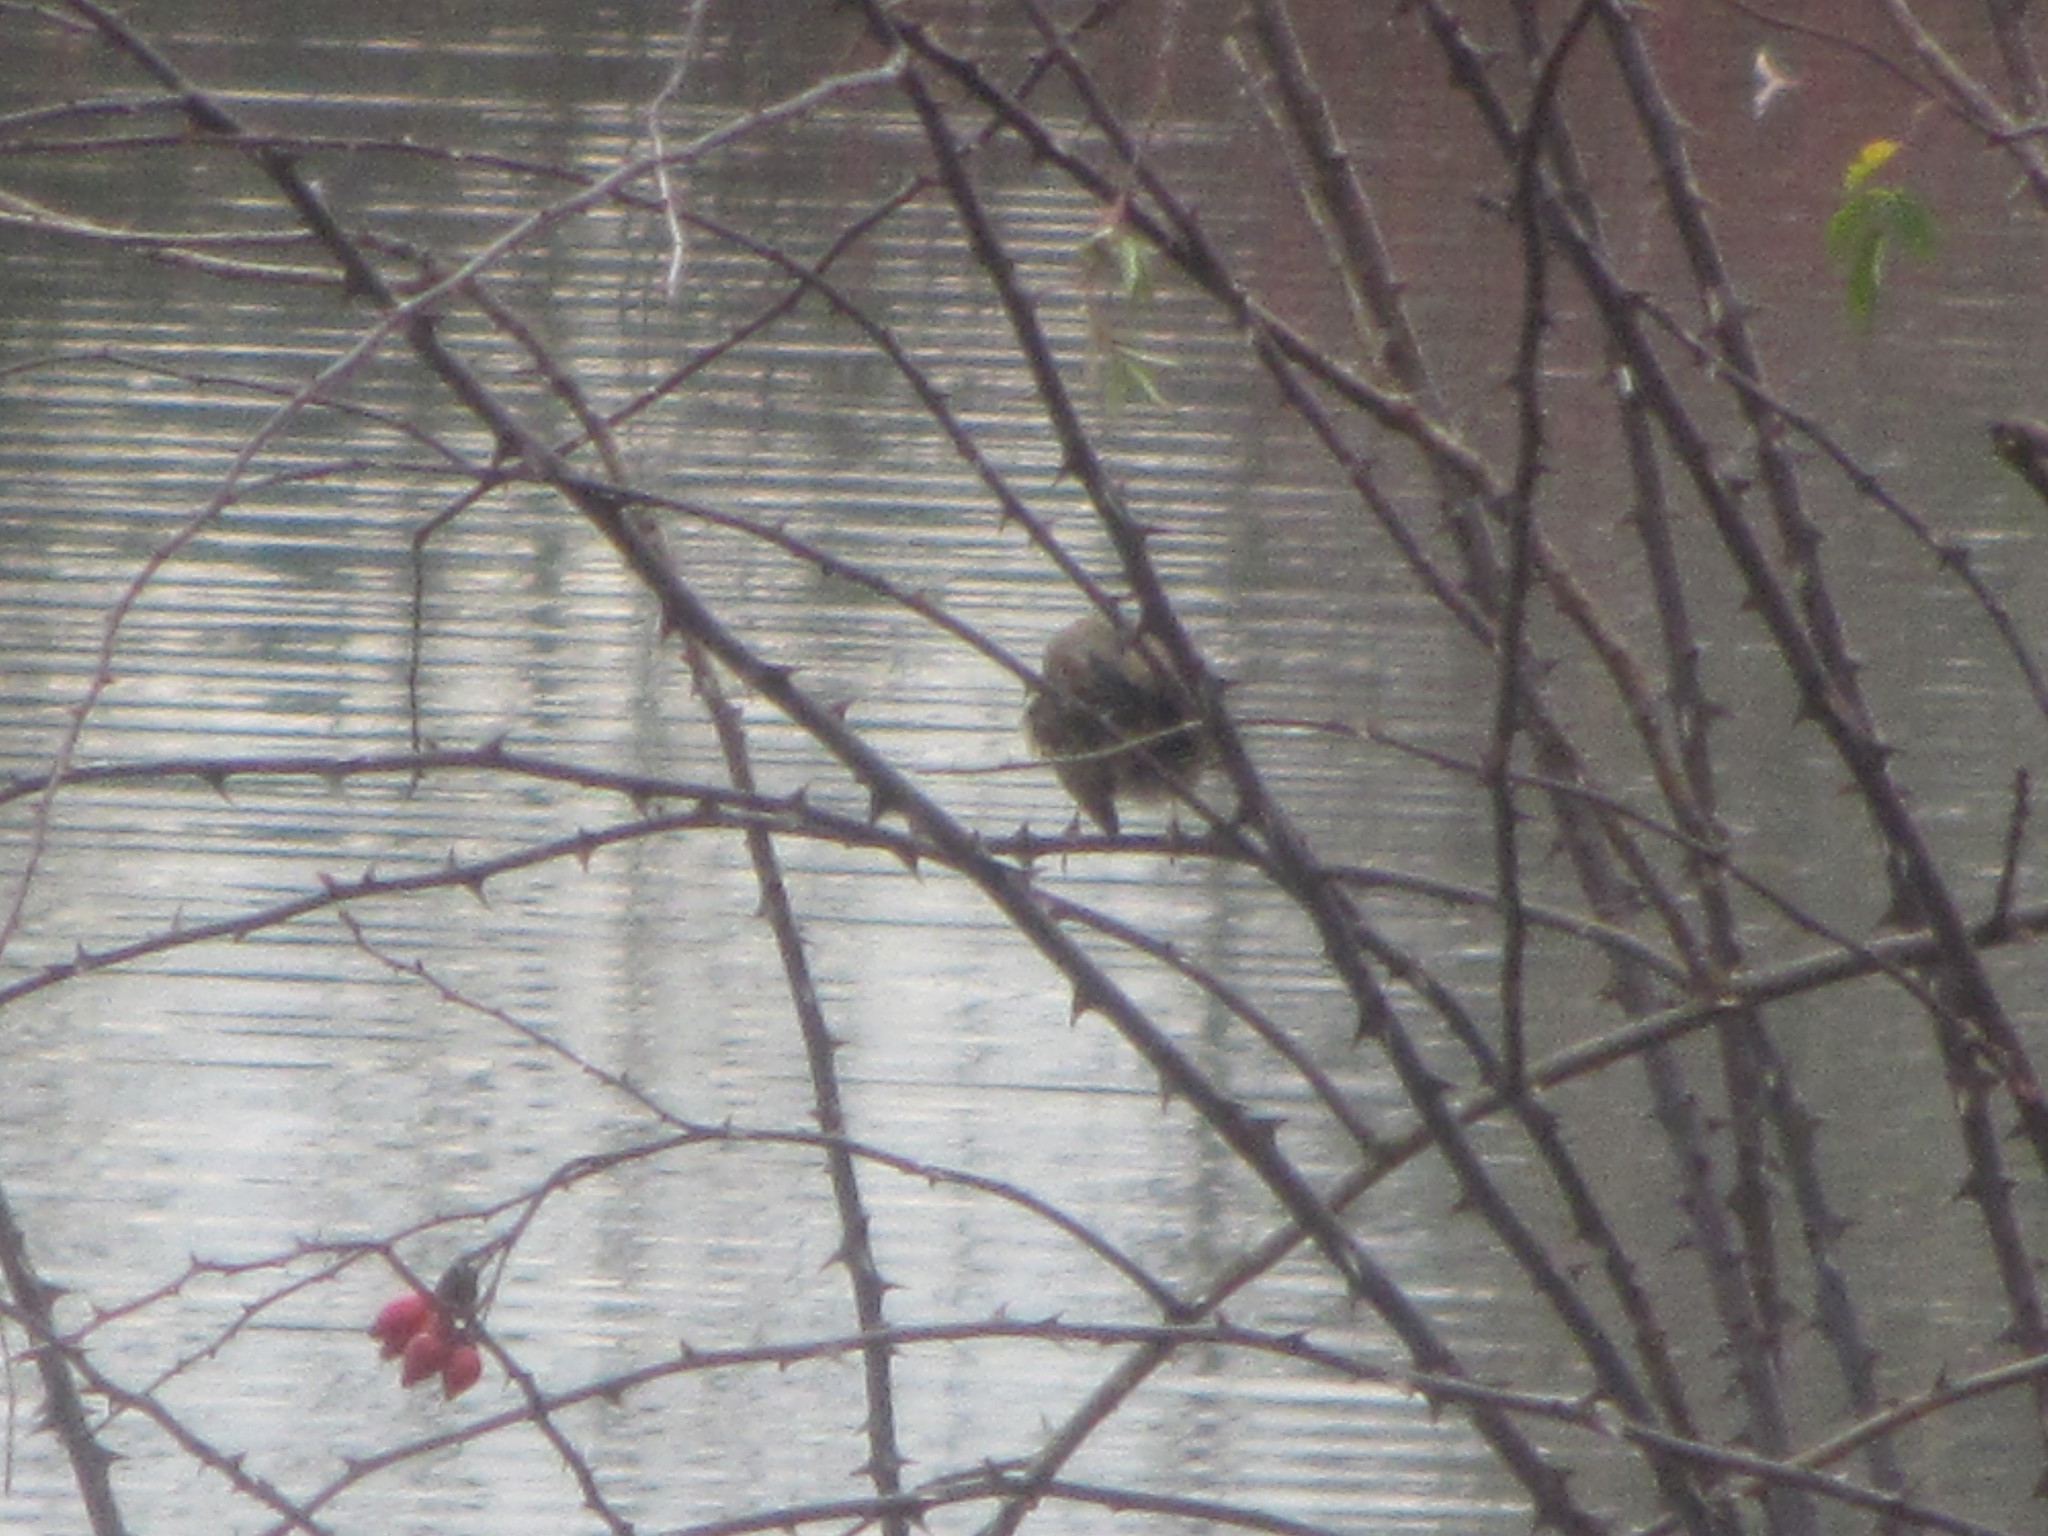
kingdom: Animalia
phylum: Chordata
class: Aves
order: Passeriformes
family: Passerellidae
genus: Zonotrichia
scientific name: Zonotrichia atricapilla
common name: Golden-crowned sparrow
